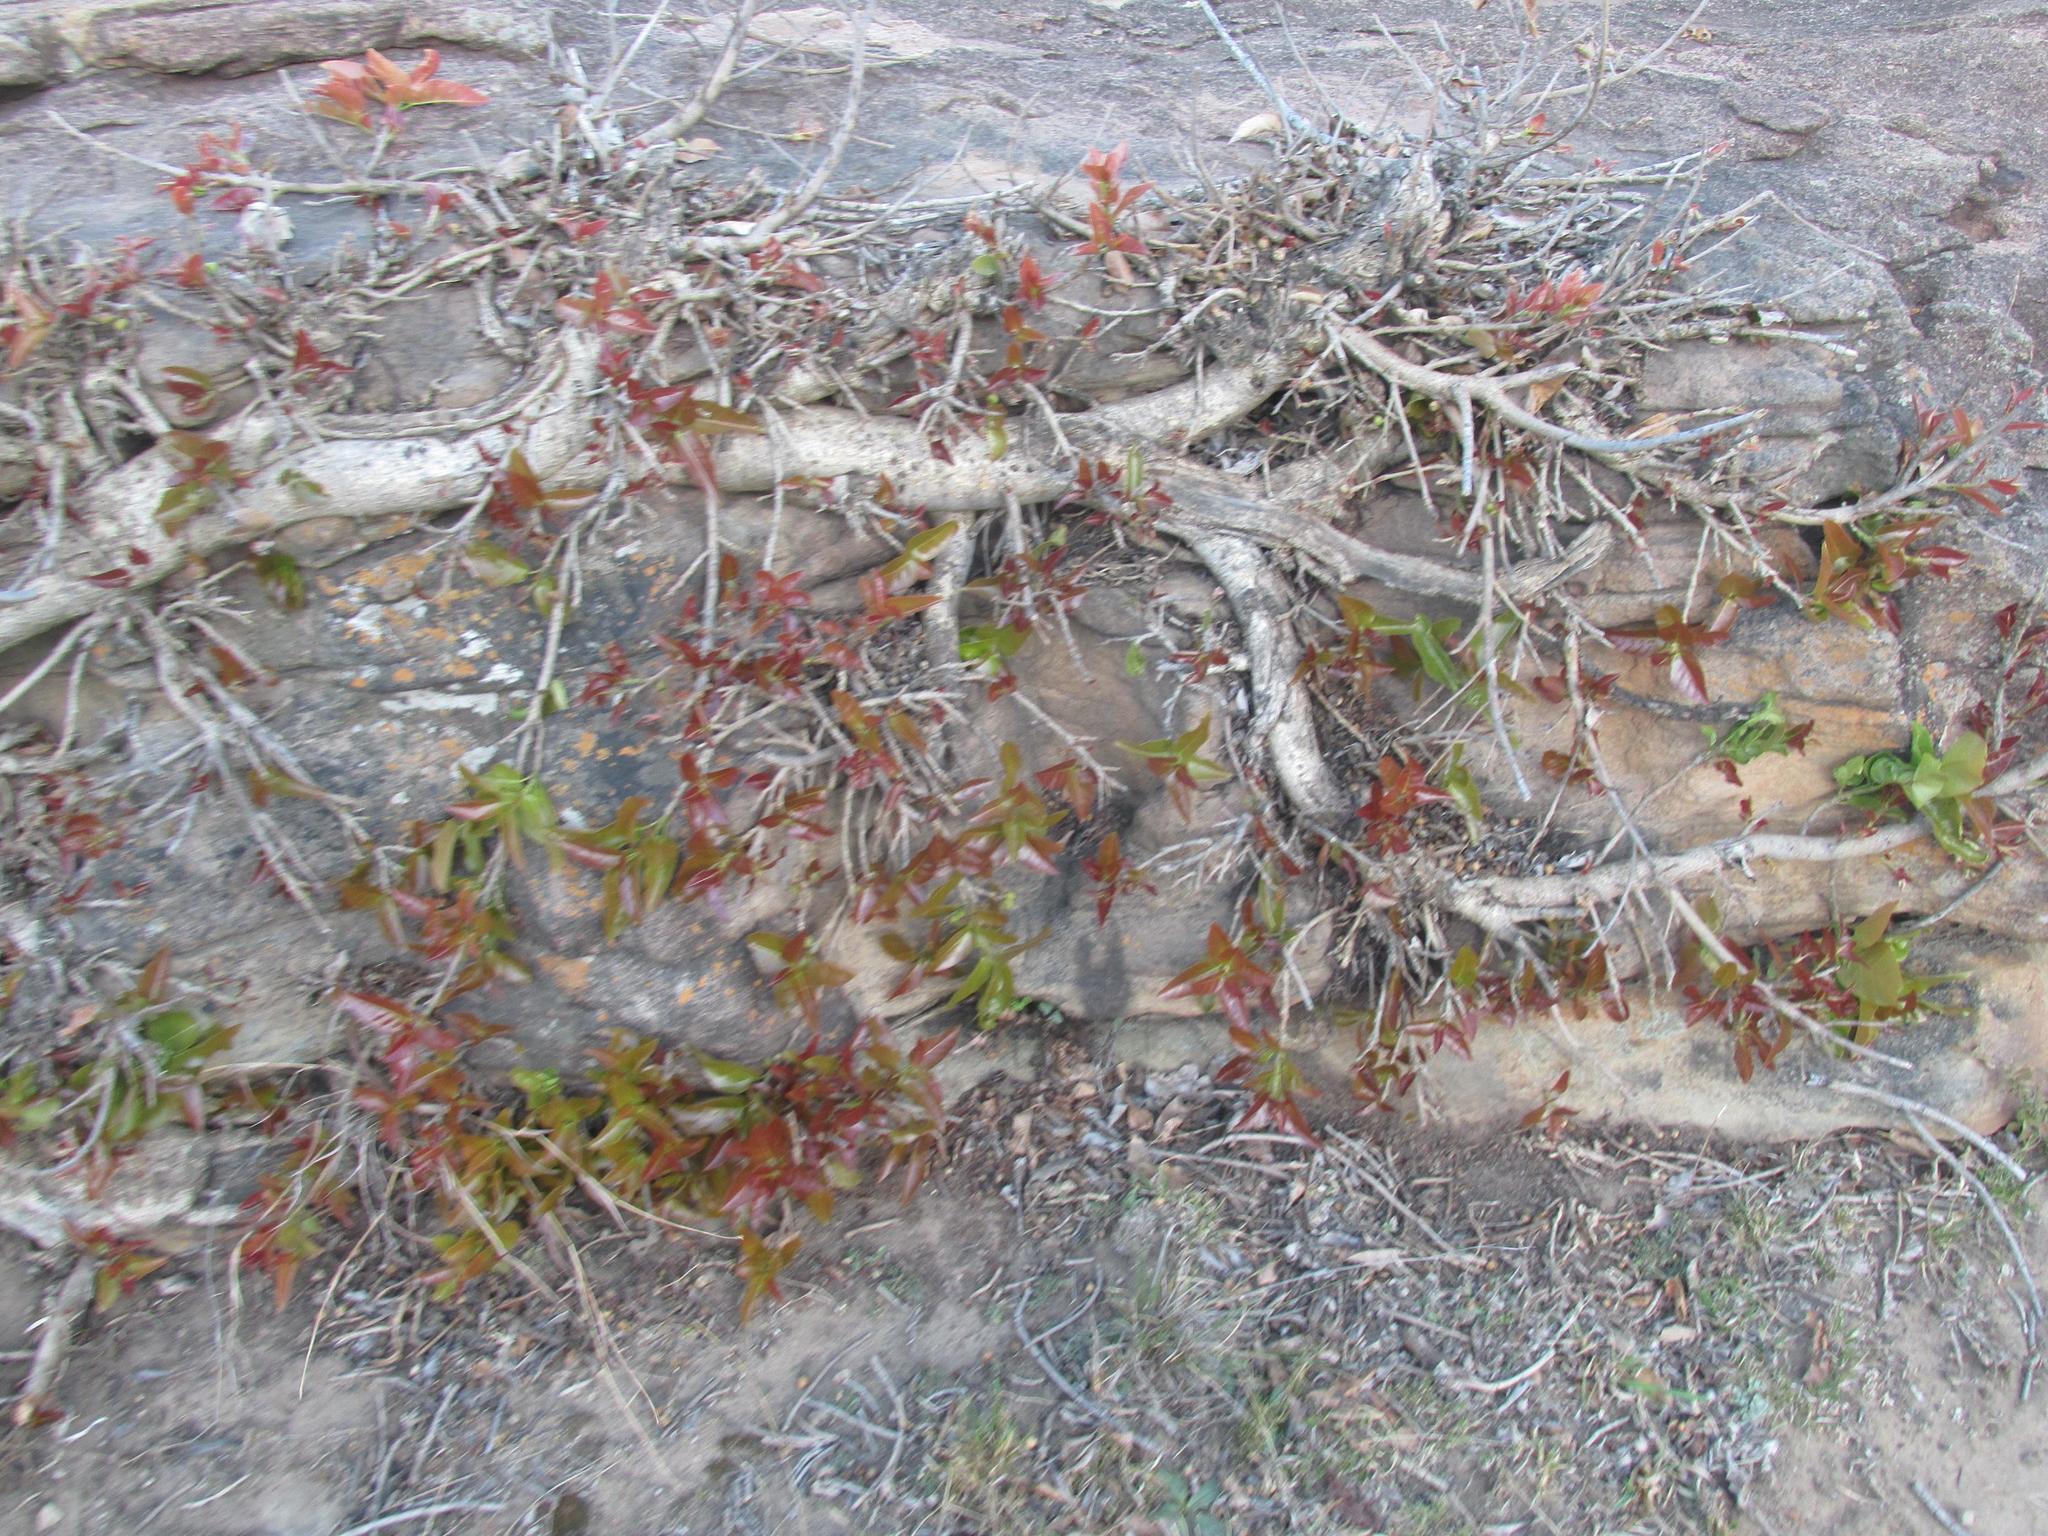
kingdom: Plantae
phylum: Tracheophyta
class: Magnoliopsida
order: Rosales
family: Moraceae
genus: Ficus
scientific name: Ficus ingens
